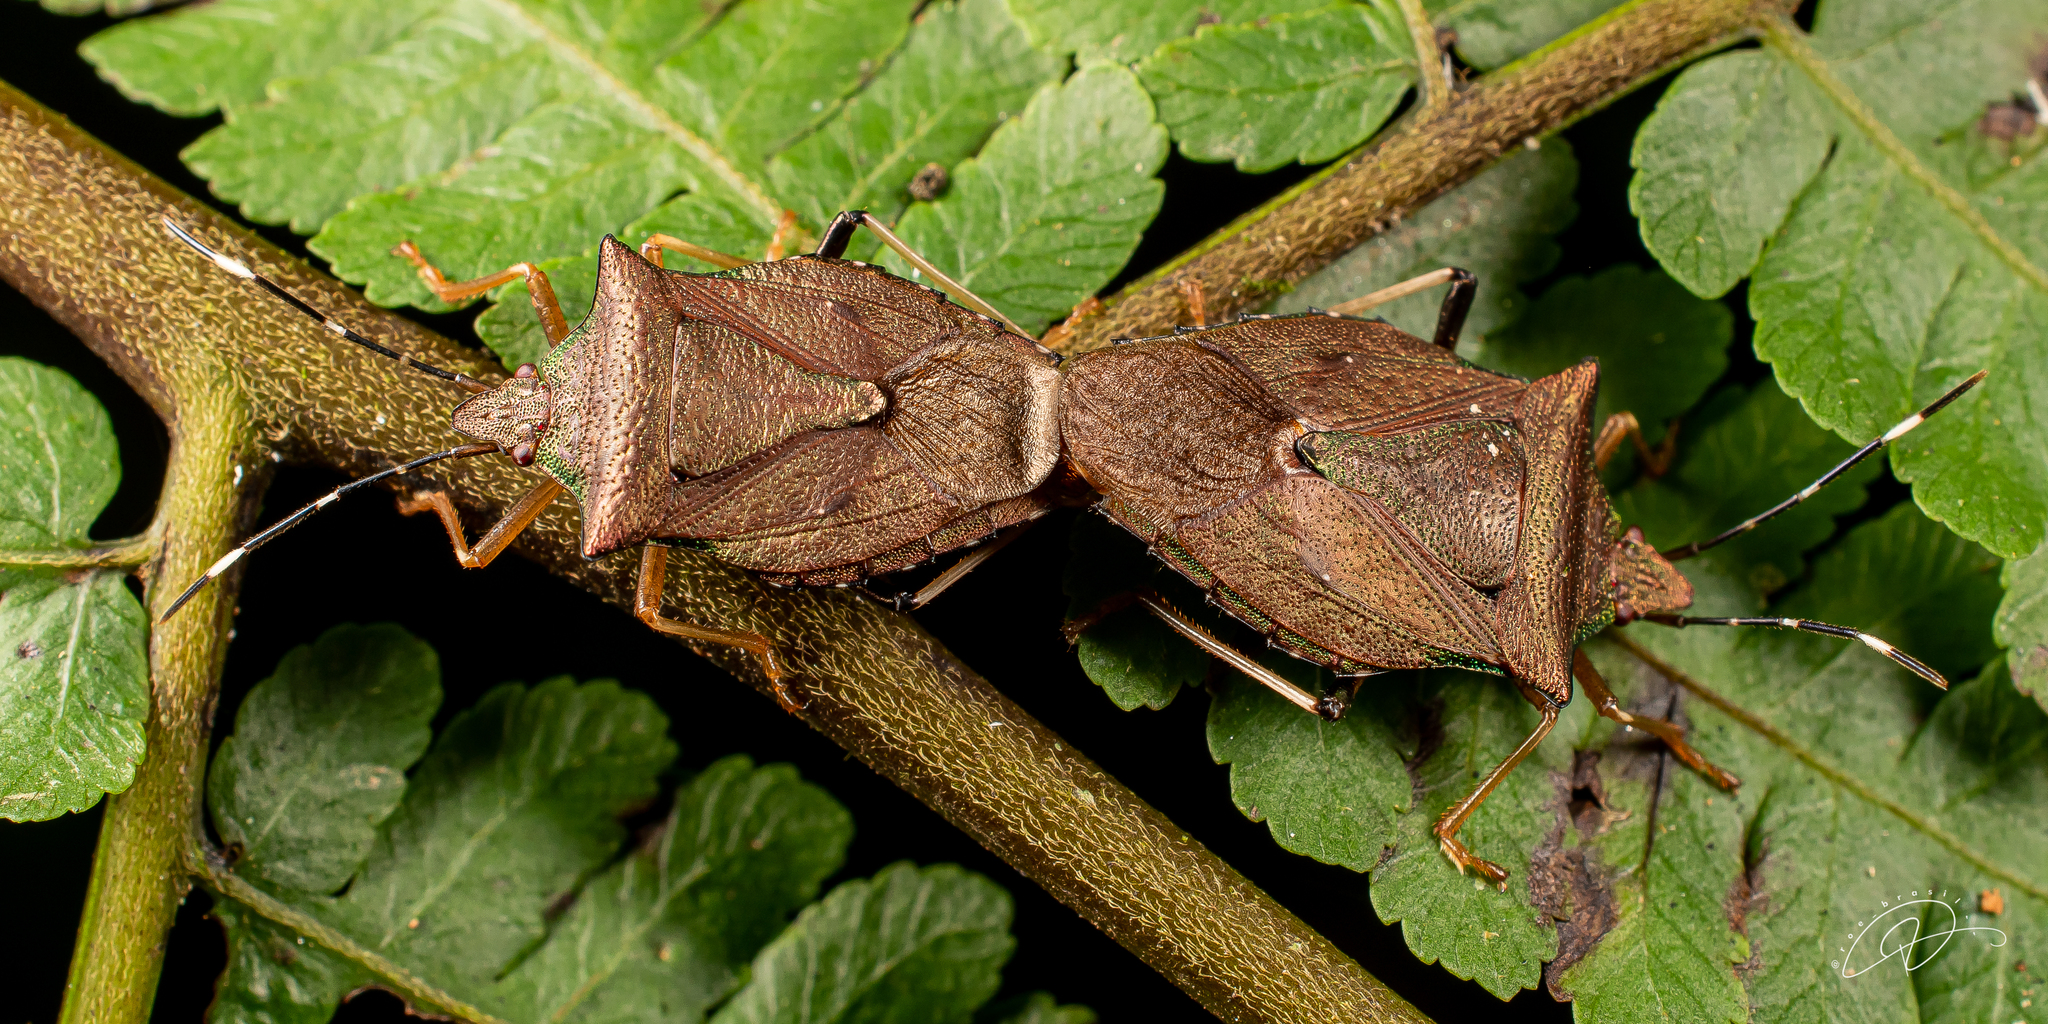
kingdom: Animalia
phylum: Arthropoda
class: Insecta
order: Hemiptera
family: Pentatomidae
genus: Myota
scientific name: Myota aerea
